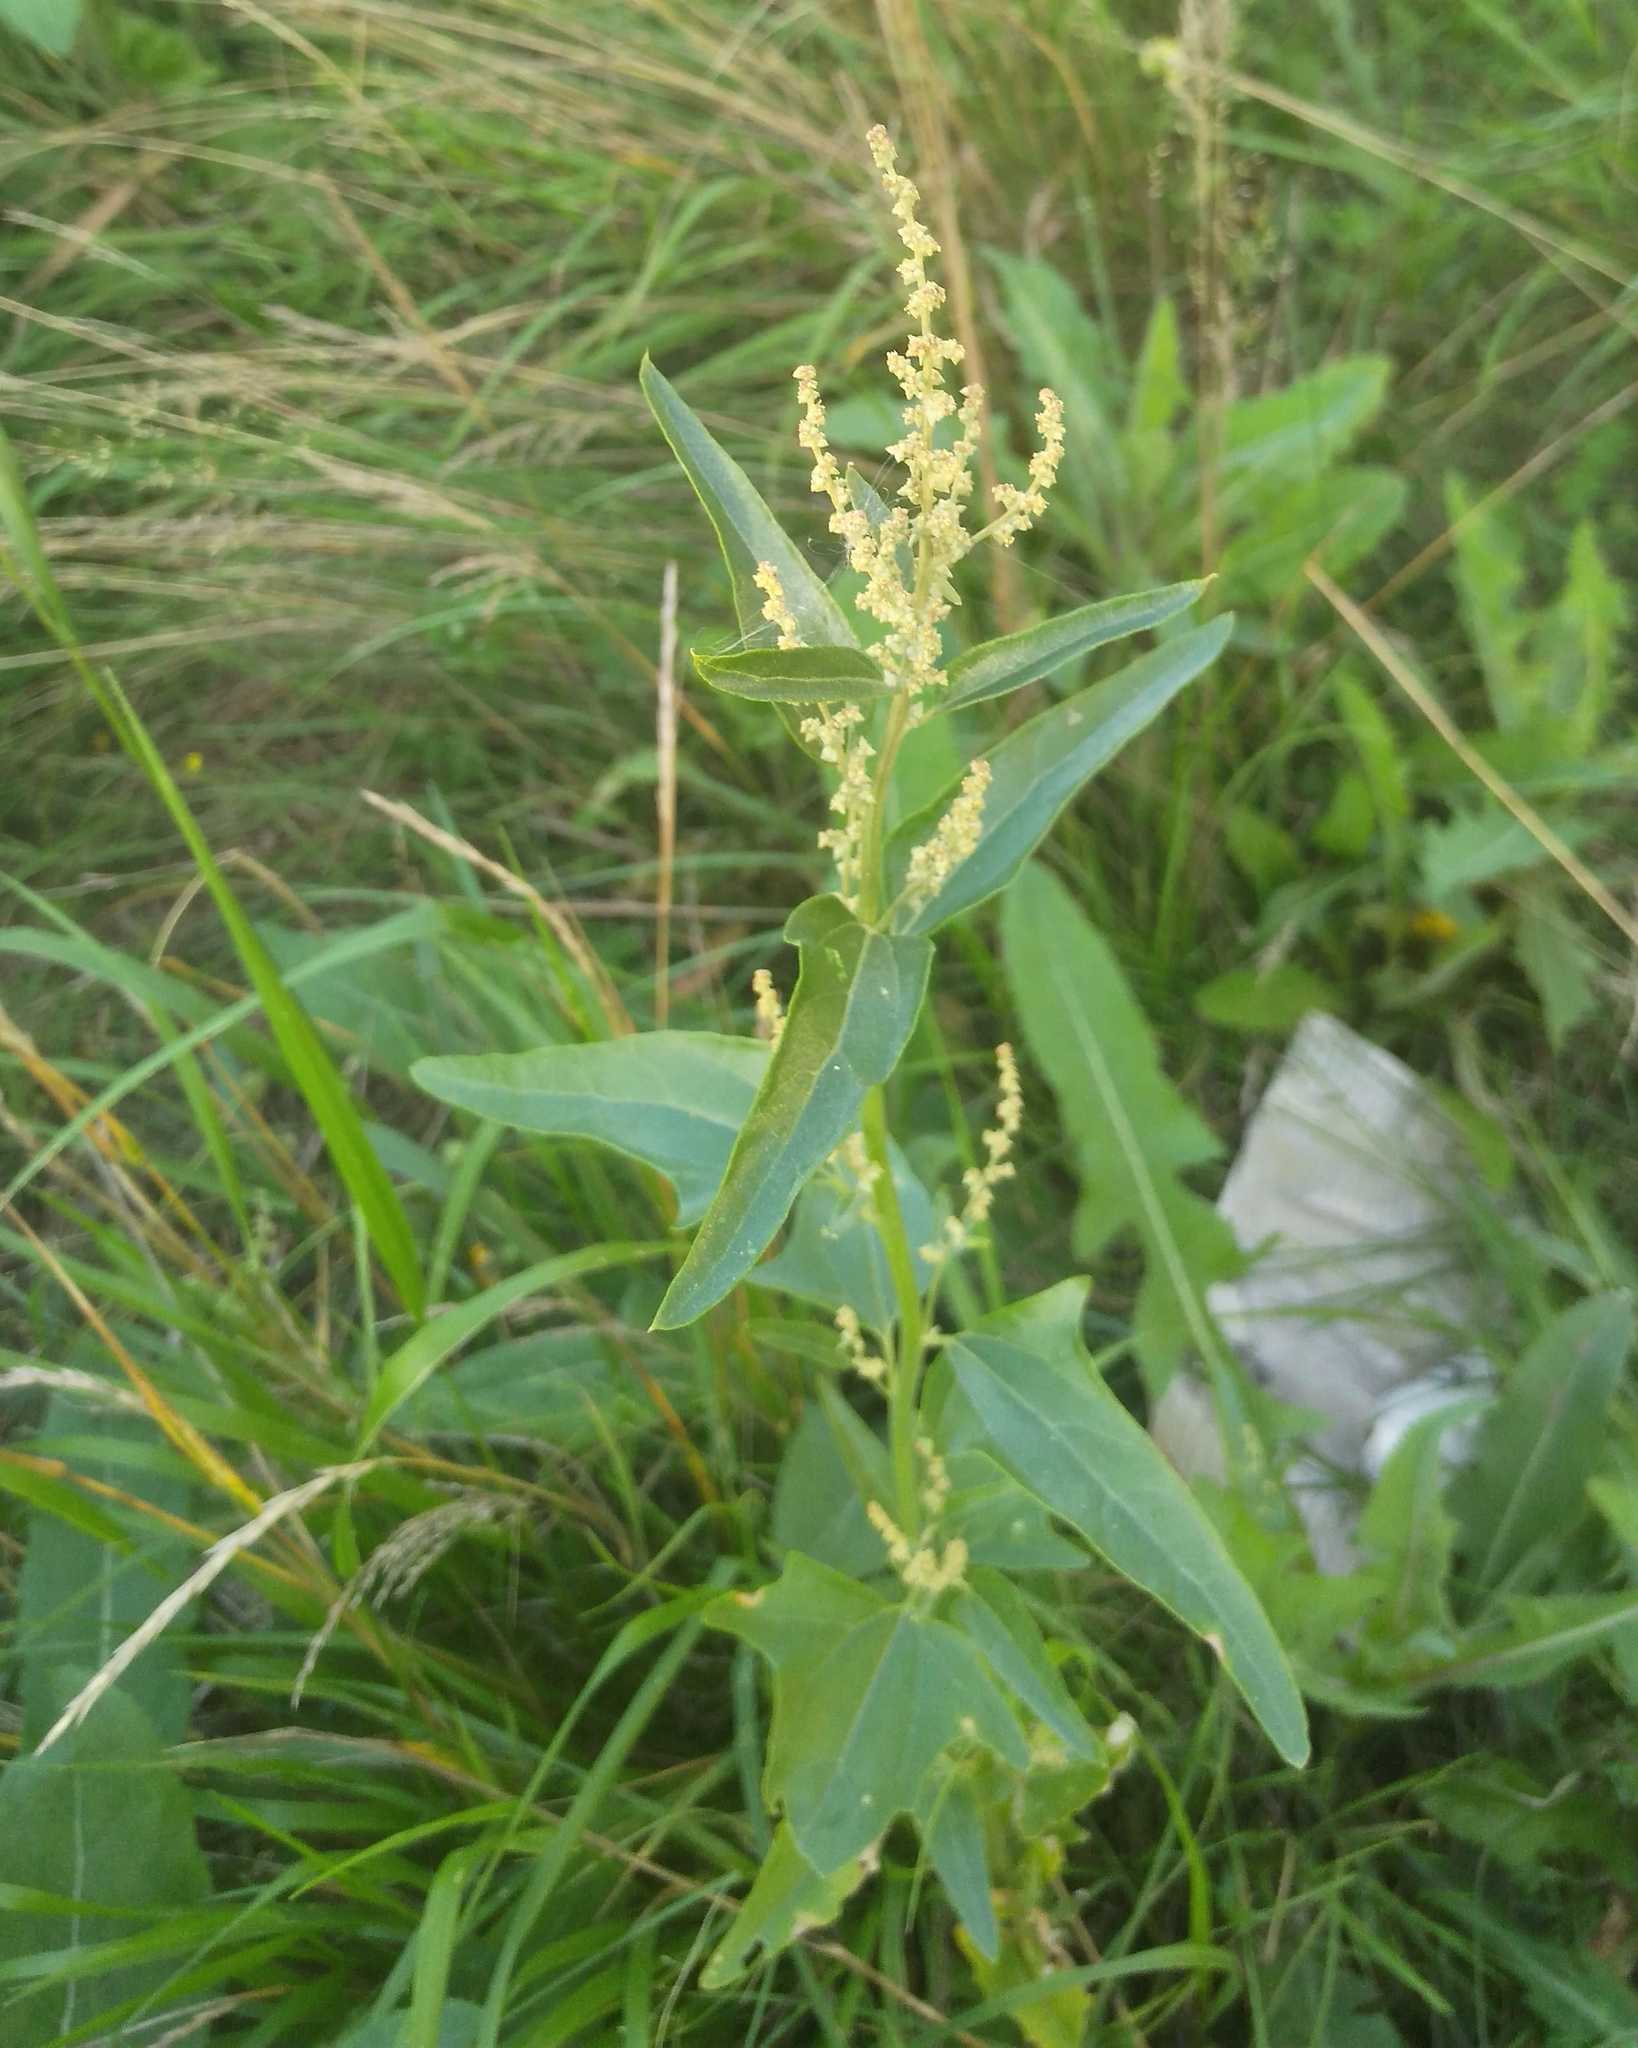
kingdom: Plantae
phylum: Tracheophyta
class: Magnoliopsida
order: Caryophyllales
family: Amaranthaceae
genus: Atriplex
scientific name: Atriplex sagittata
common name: Purple orache
